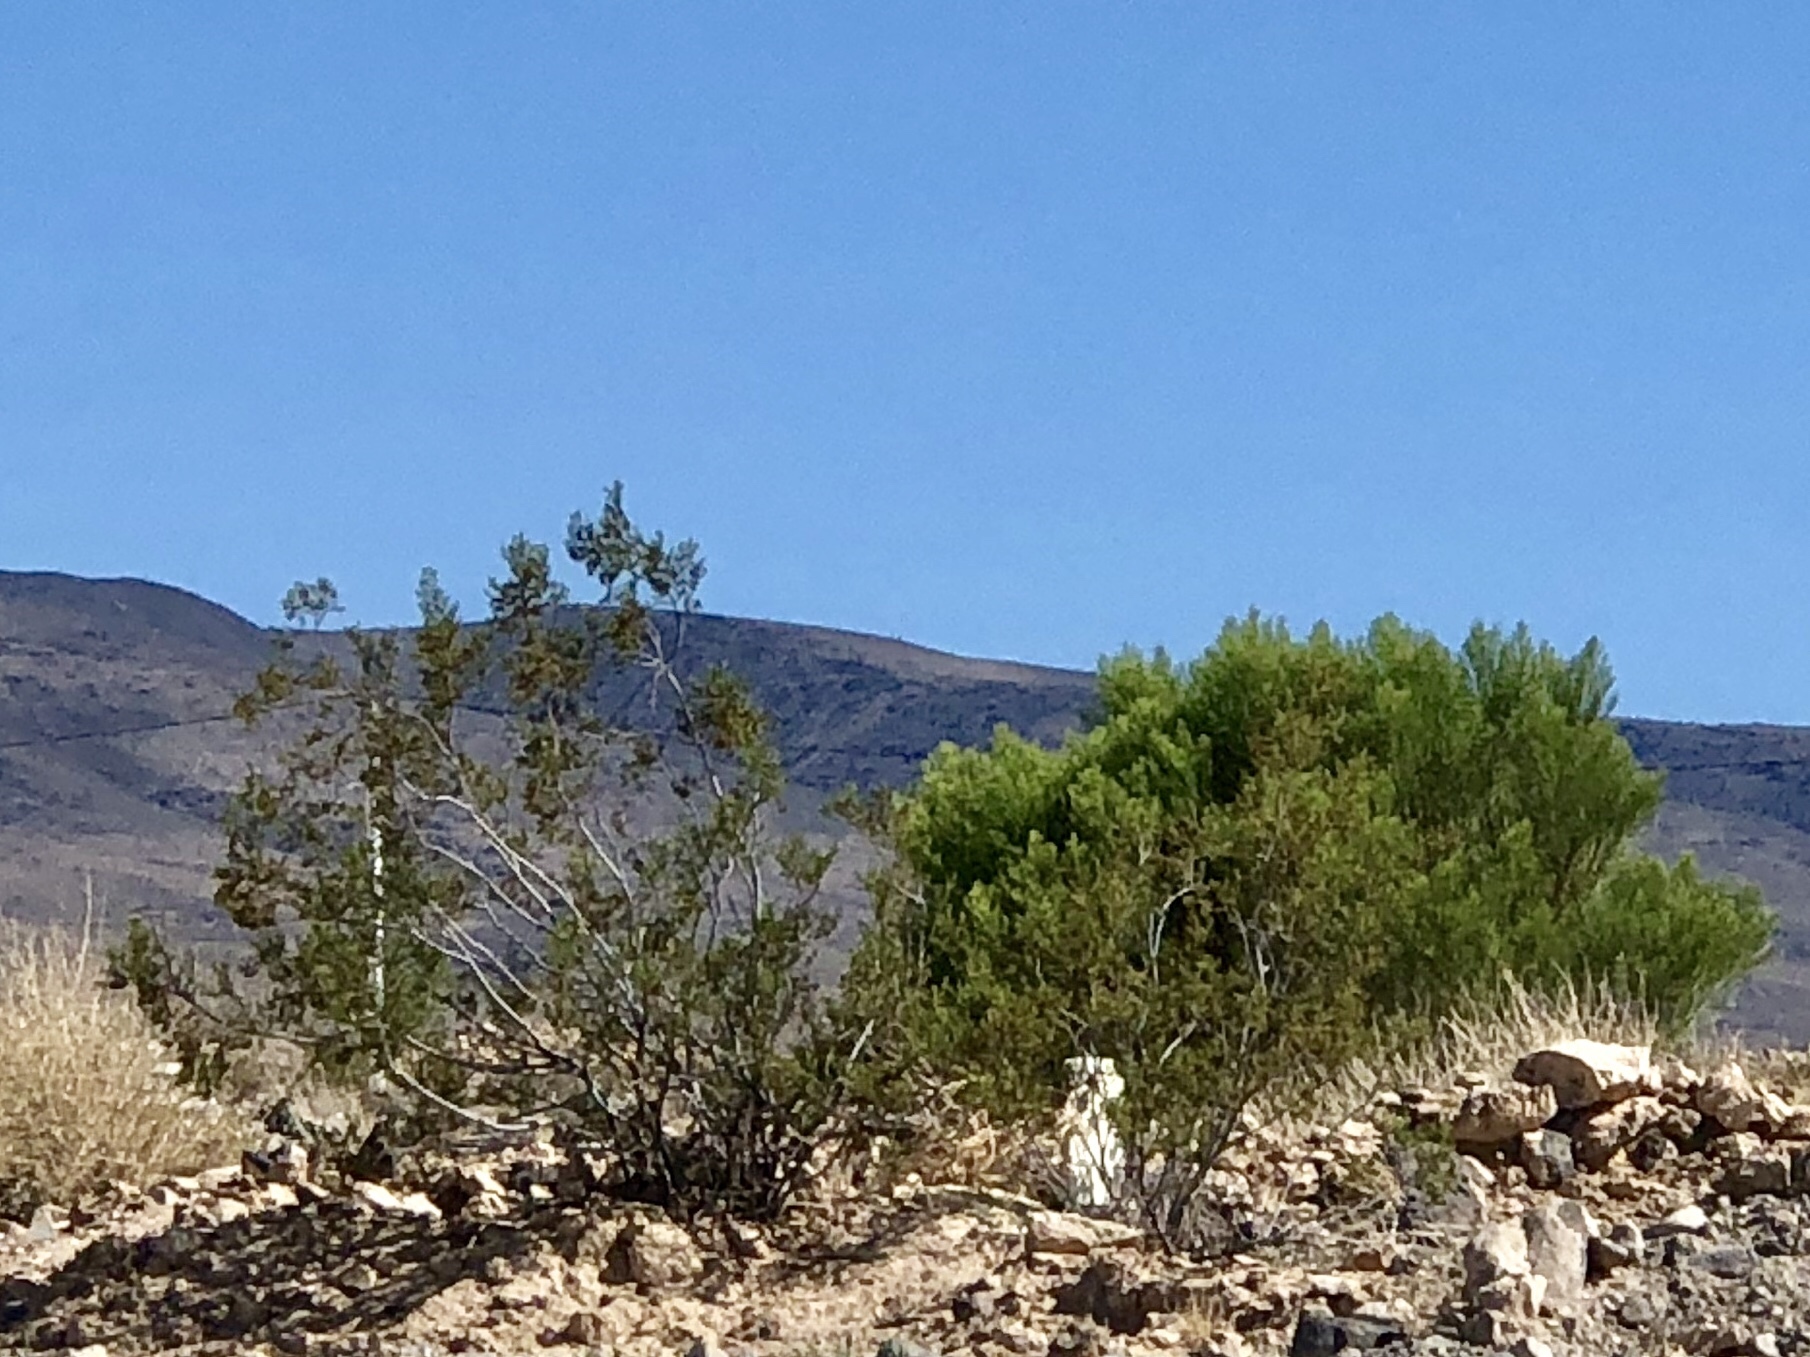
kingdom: Plantae
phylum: Tracheophyta
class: Magnoliopsida
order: Zygophyllales
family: Zygophyllaceae
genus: Larrea
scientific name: Larrea tridentata
